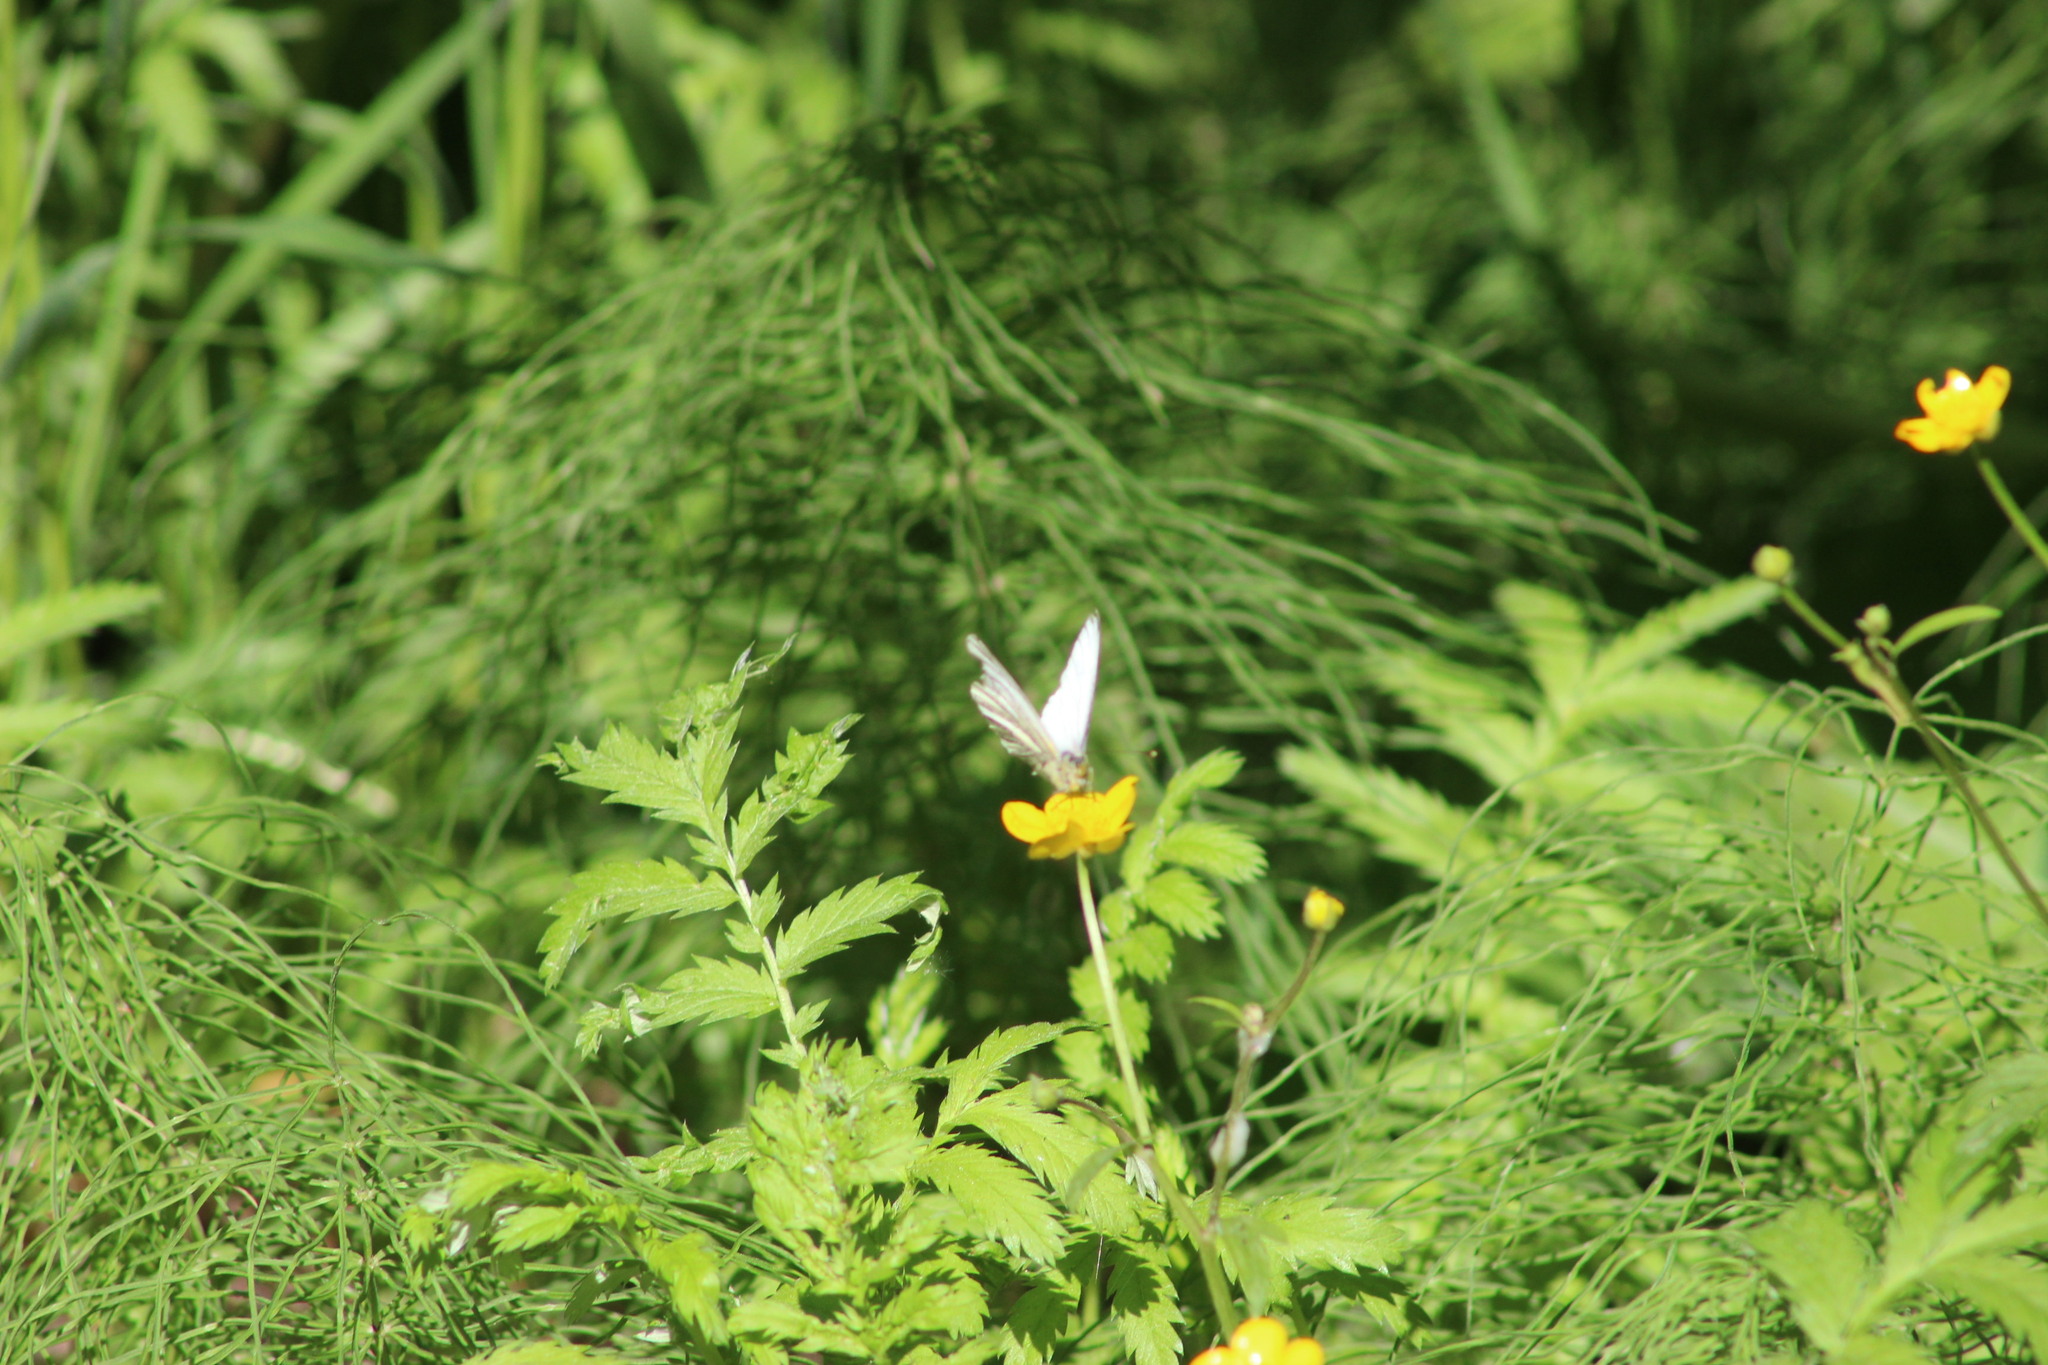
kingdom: Animalia
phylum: Arthropoda
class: Insecta
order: Lepidoptera
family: Pieridae
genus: Pieris
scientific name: Pieris napi
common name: Green-veined white
